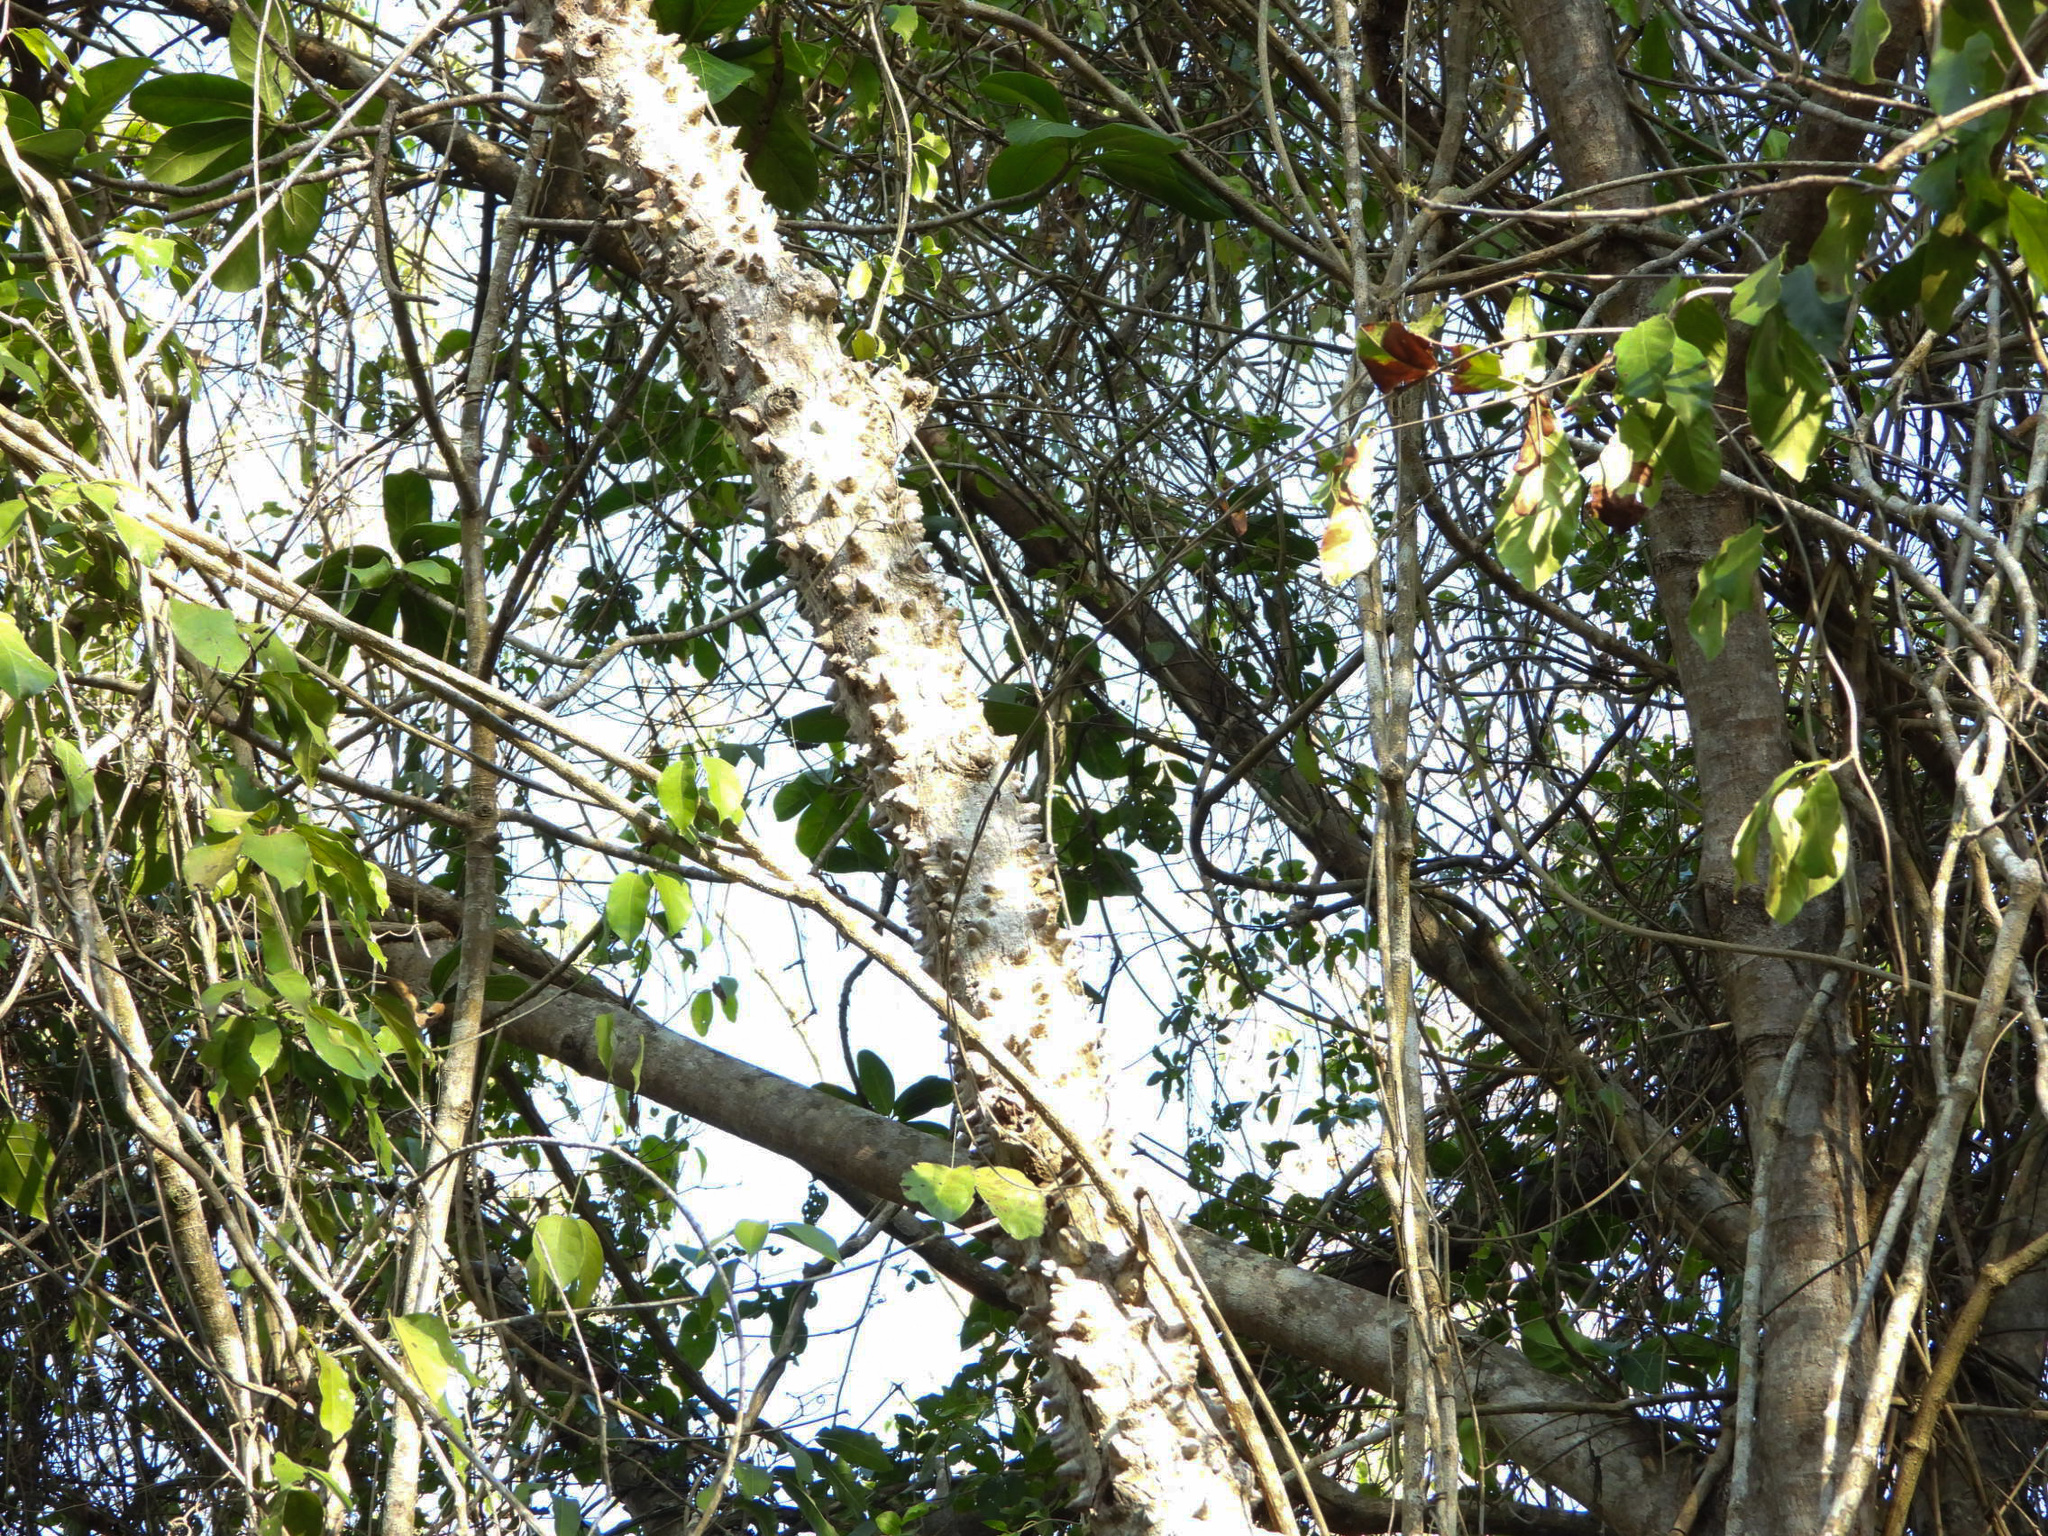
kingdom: Plantae
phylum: Tracheophyta
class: Magnoliopsida
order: Malvales
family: Malvaceae
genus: Ceiba
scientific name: Ceiba schottii
